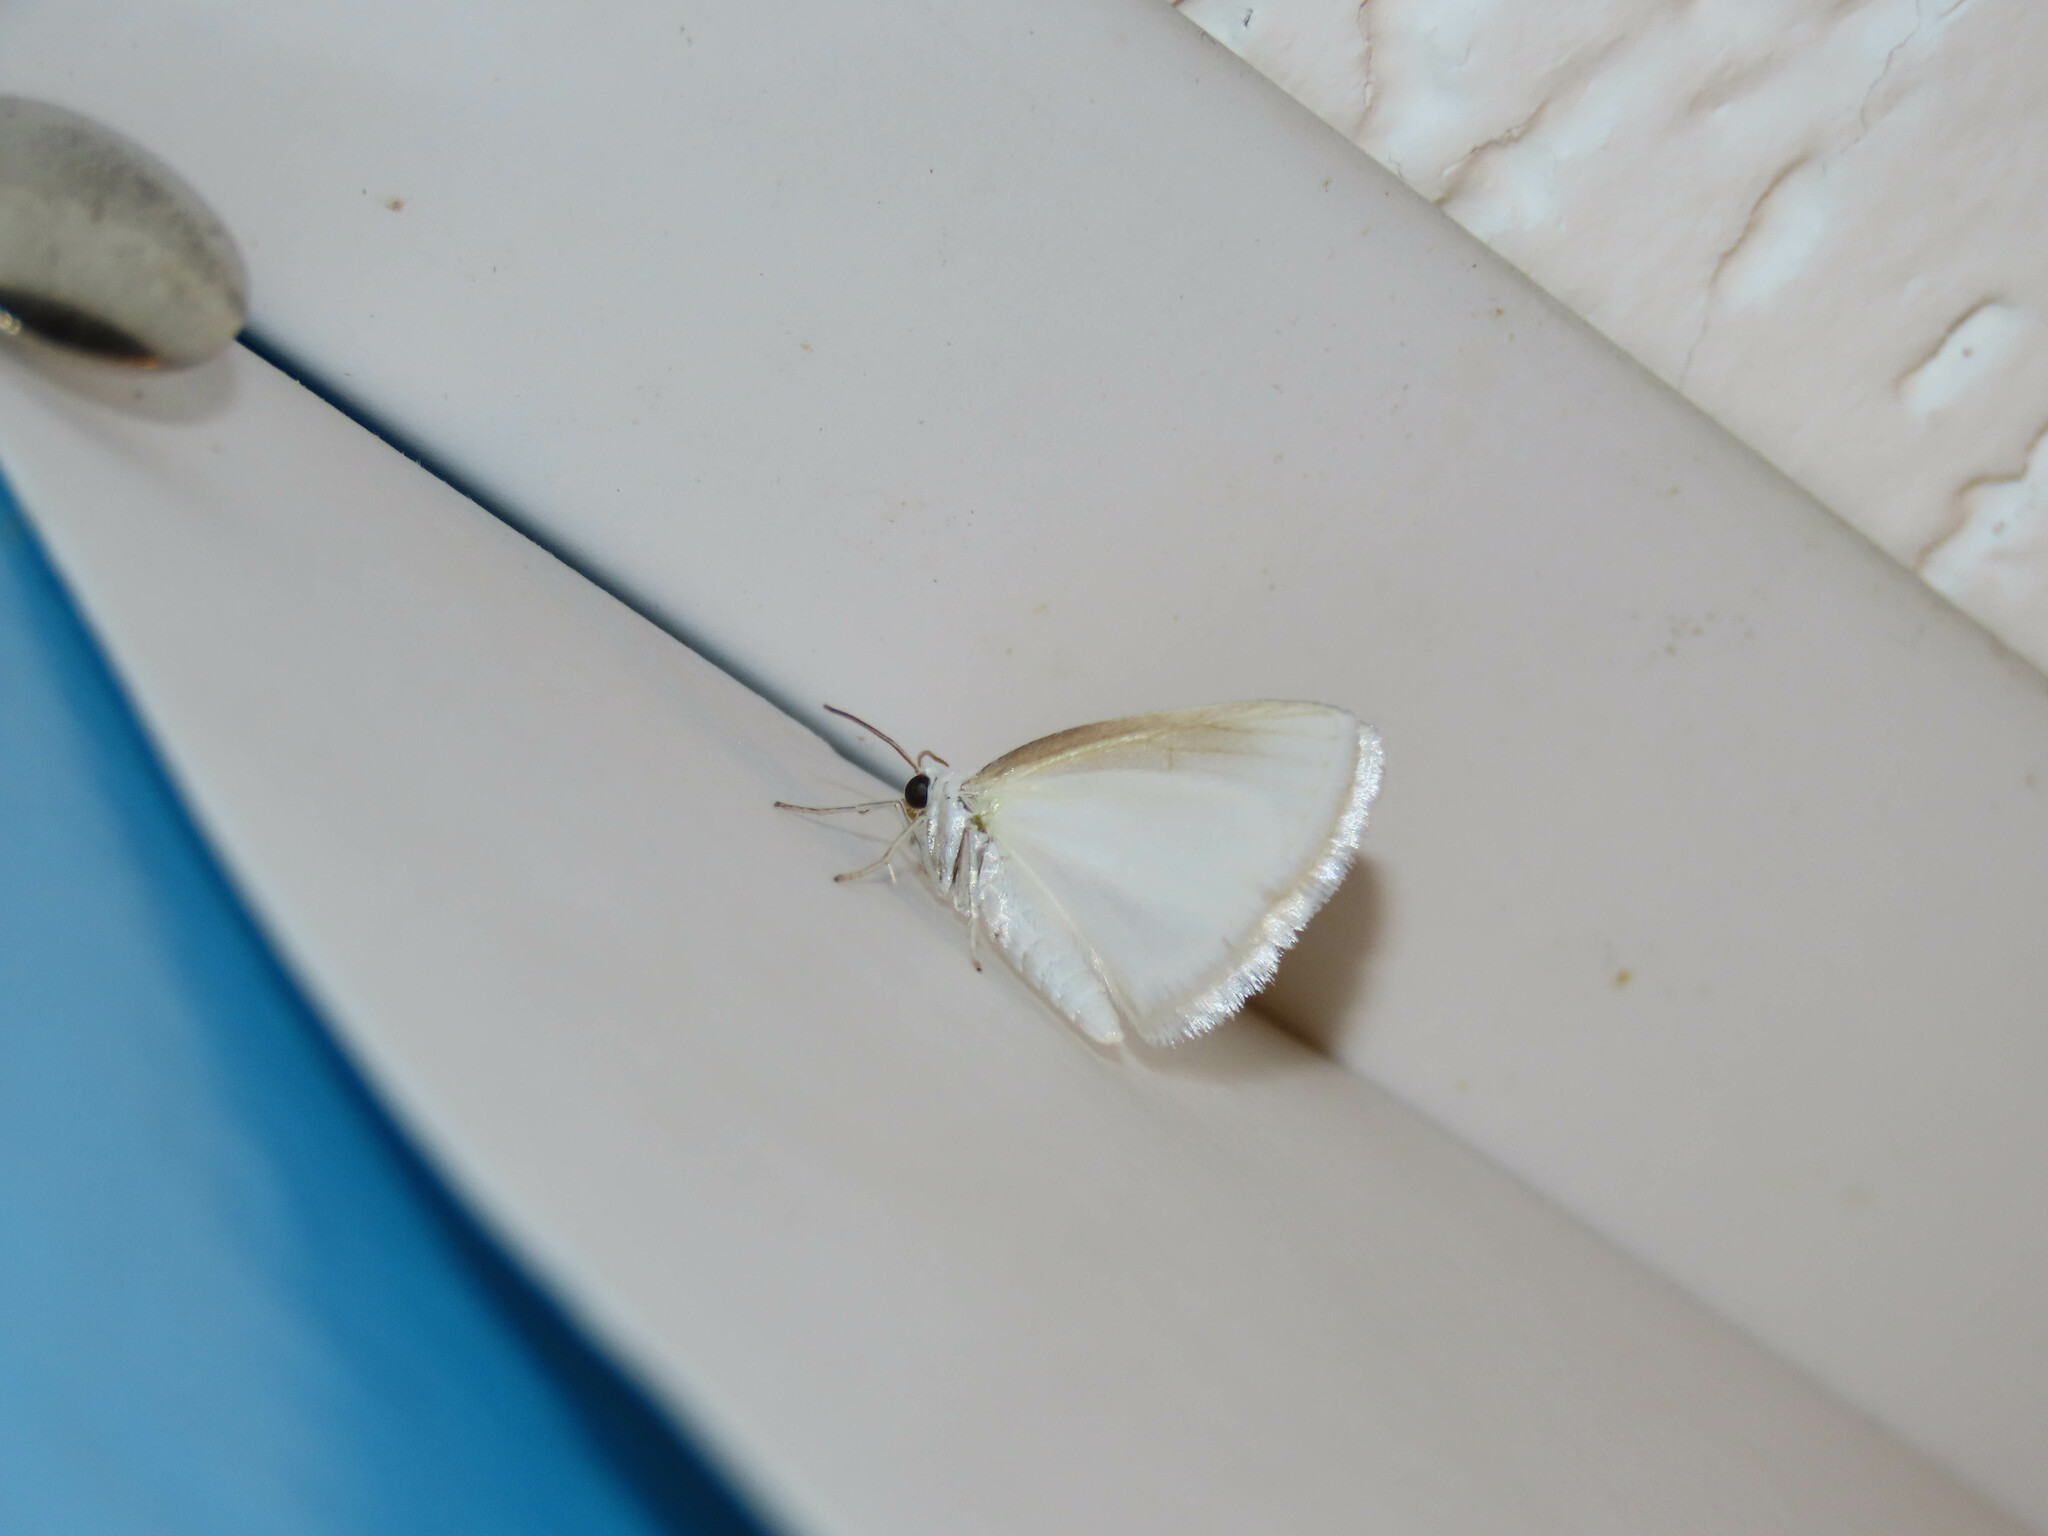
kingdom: Animalia
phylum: Arthropoda
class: Insecta
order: Lepidoptera
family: Geometridae
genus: Lomographa
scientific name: Lomographa vestaliata
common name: White spring moth
